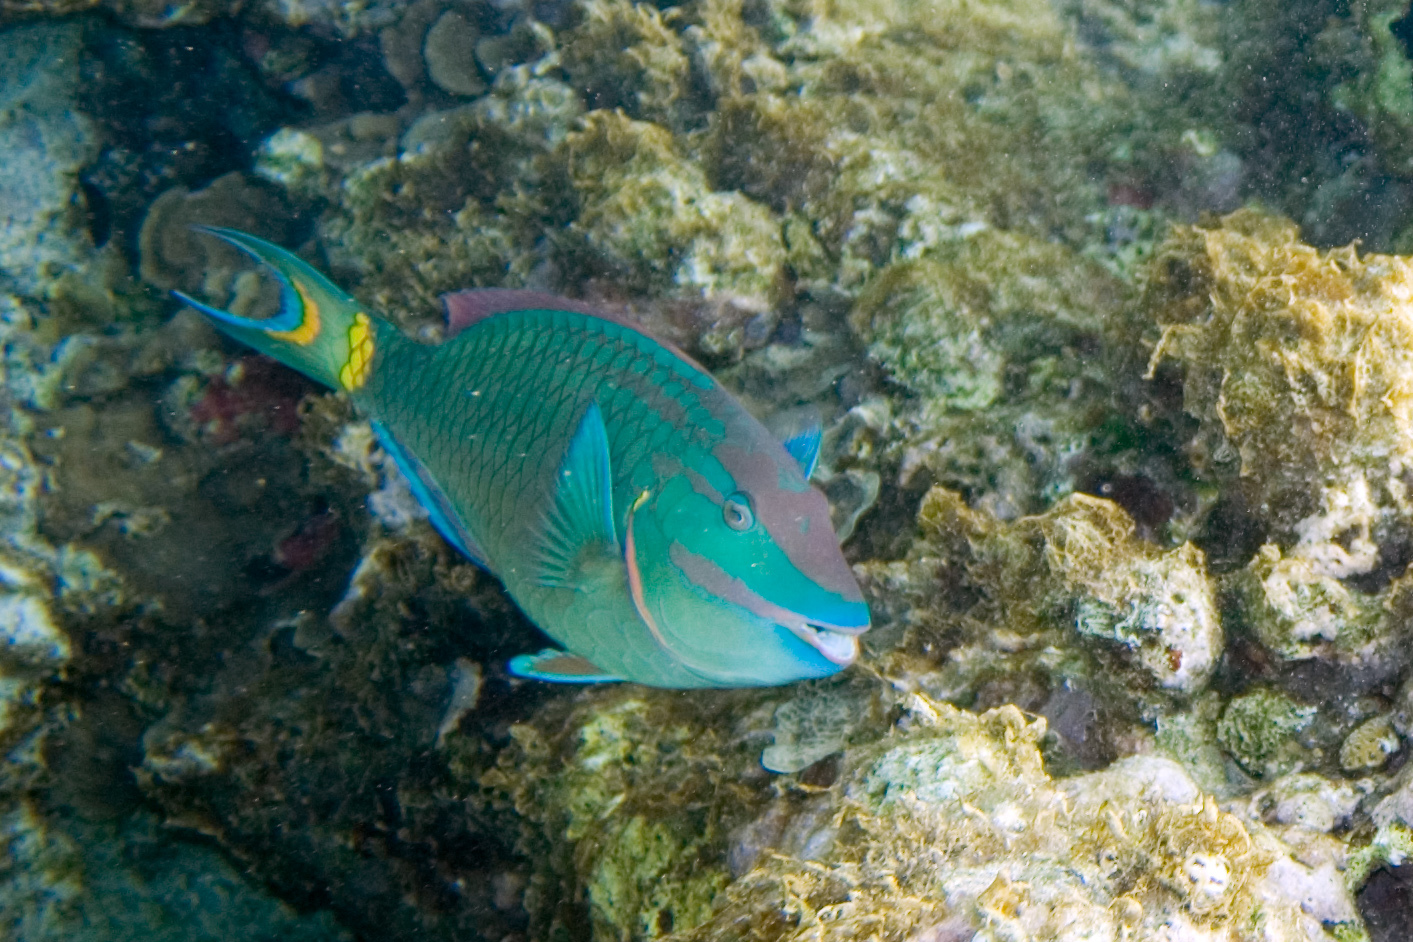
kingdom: Animalia
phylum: Chordata
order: Perciformes
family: Scaridae
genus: Sparisoma
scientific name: Sparisoma viride
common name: Stoplight parrotfish
